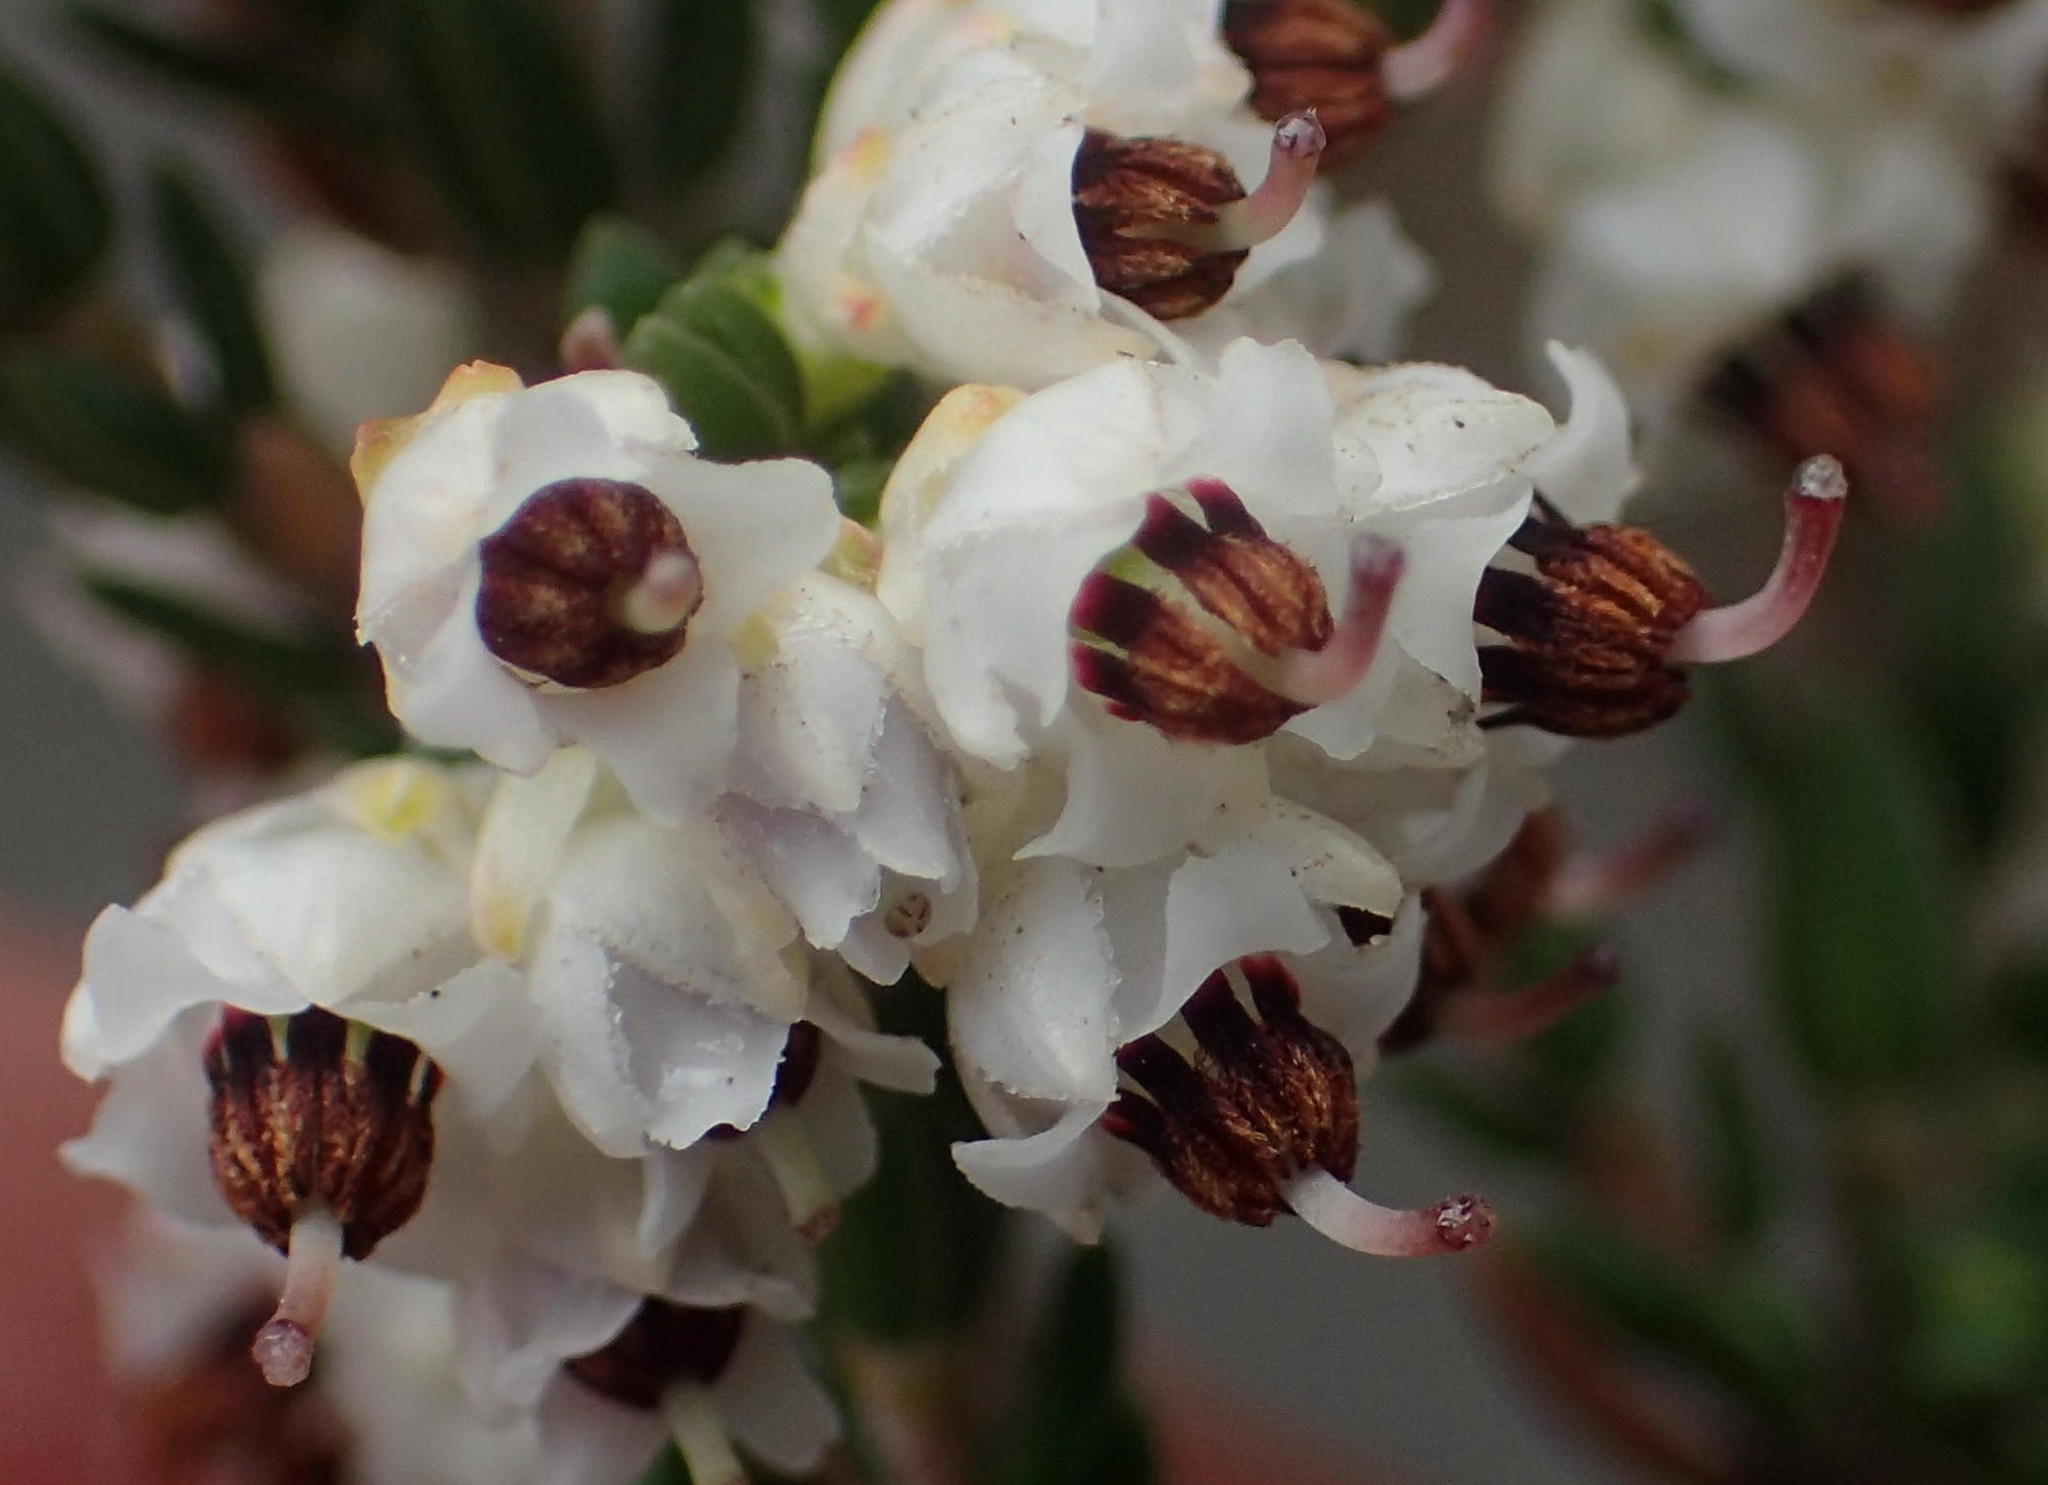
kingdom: Plantae
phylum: Tracheophyta
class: Magnoliopsida
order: Ericales
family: Ericaceae
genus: Erica
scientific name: Erica triceps
